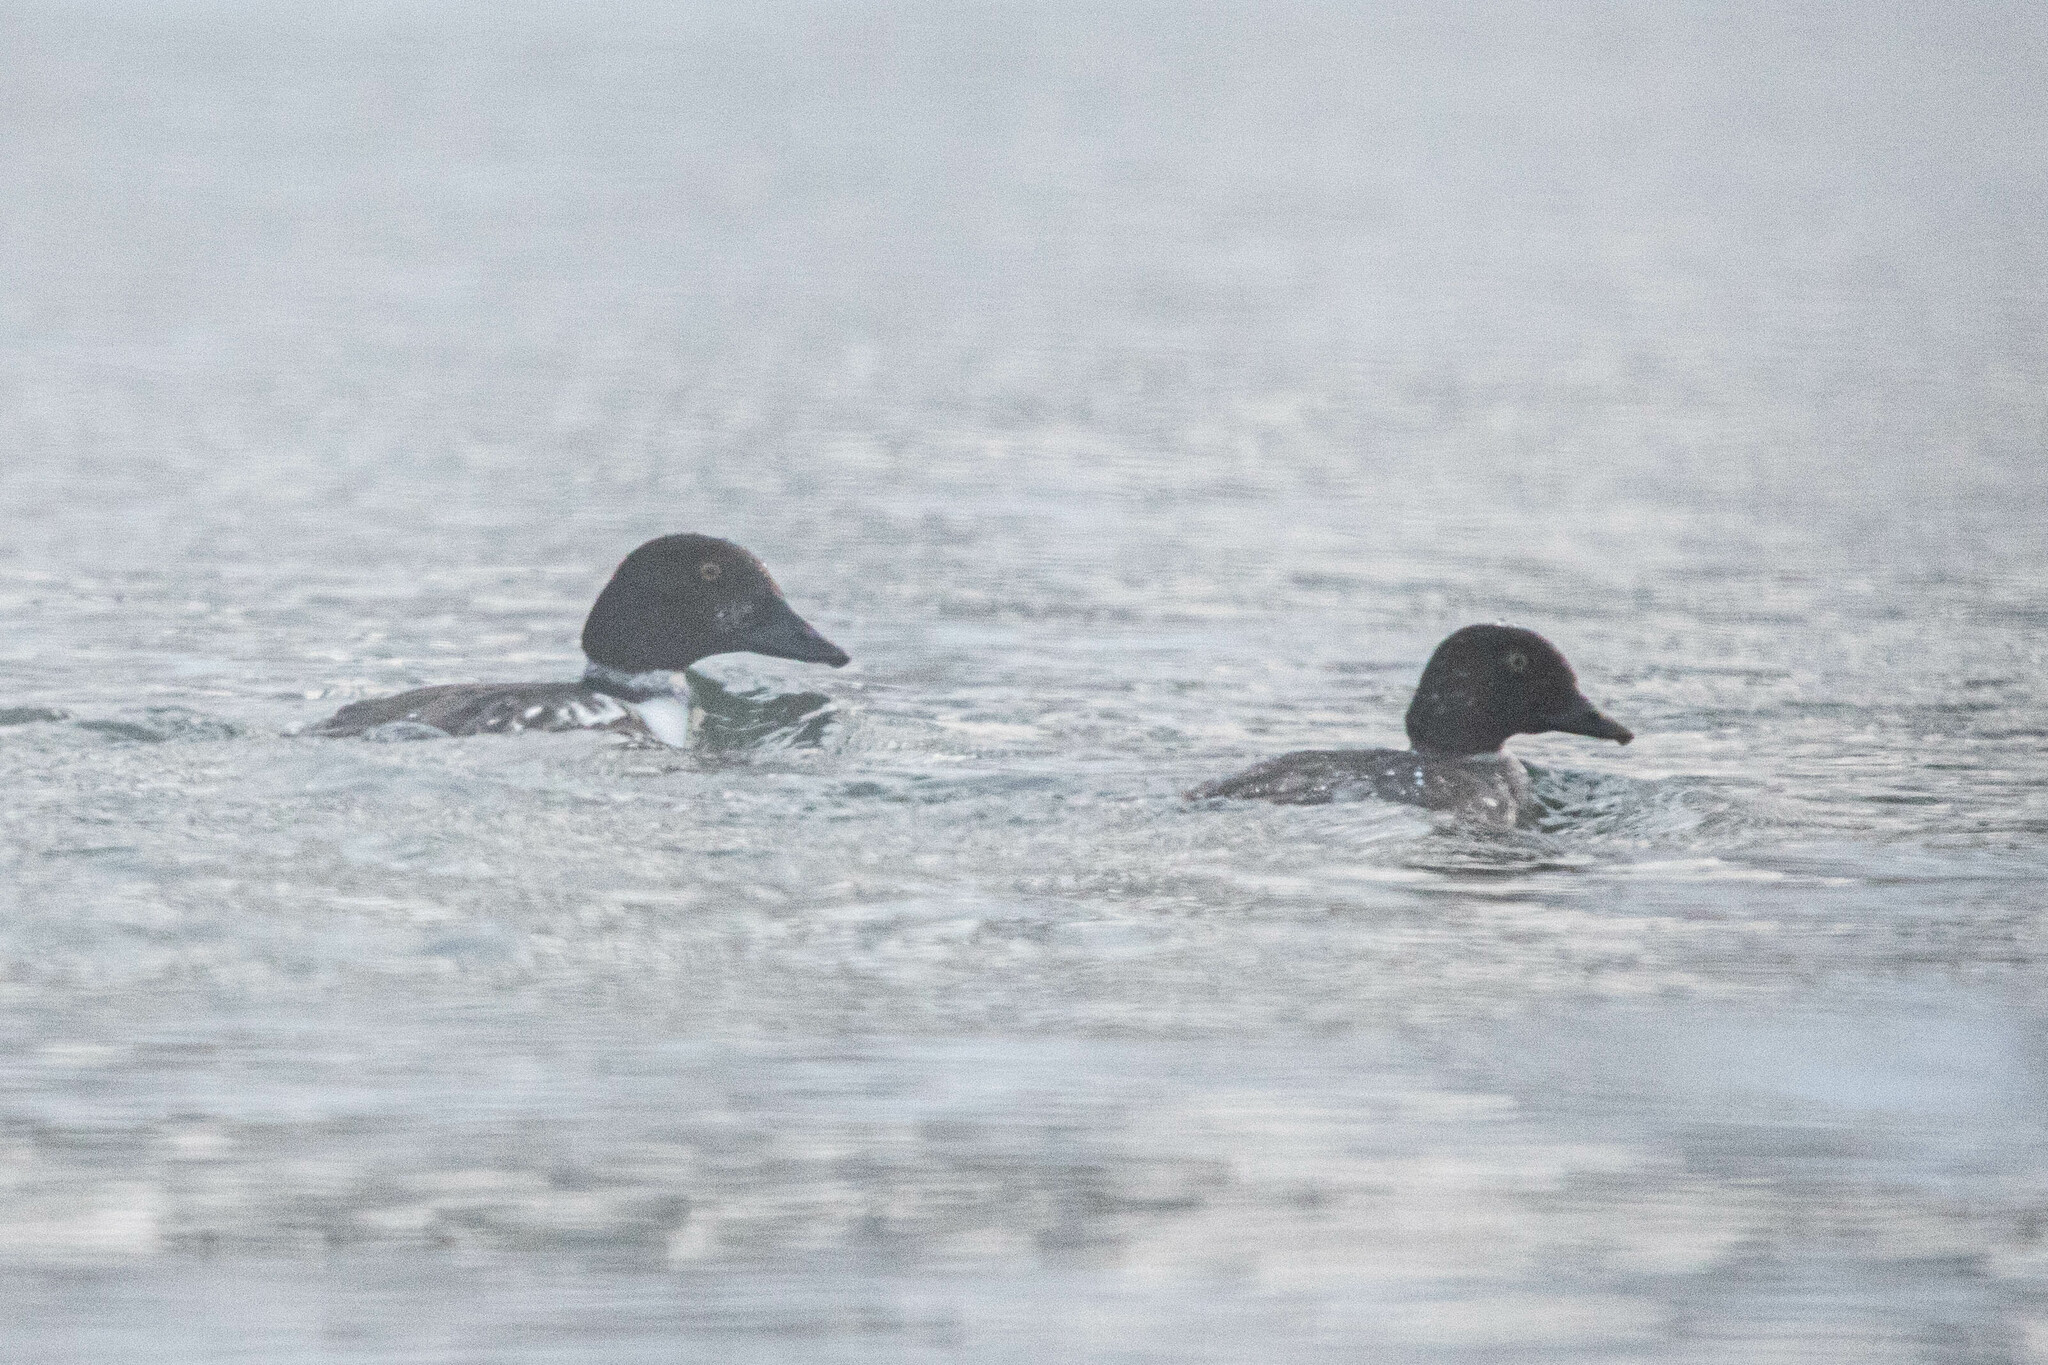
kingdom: Animalia
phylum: Chordata
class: Aves
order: Anseriformes
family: Anatidae
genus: Bucephala
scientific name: Bucephala clangula
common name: Common goldeneye
